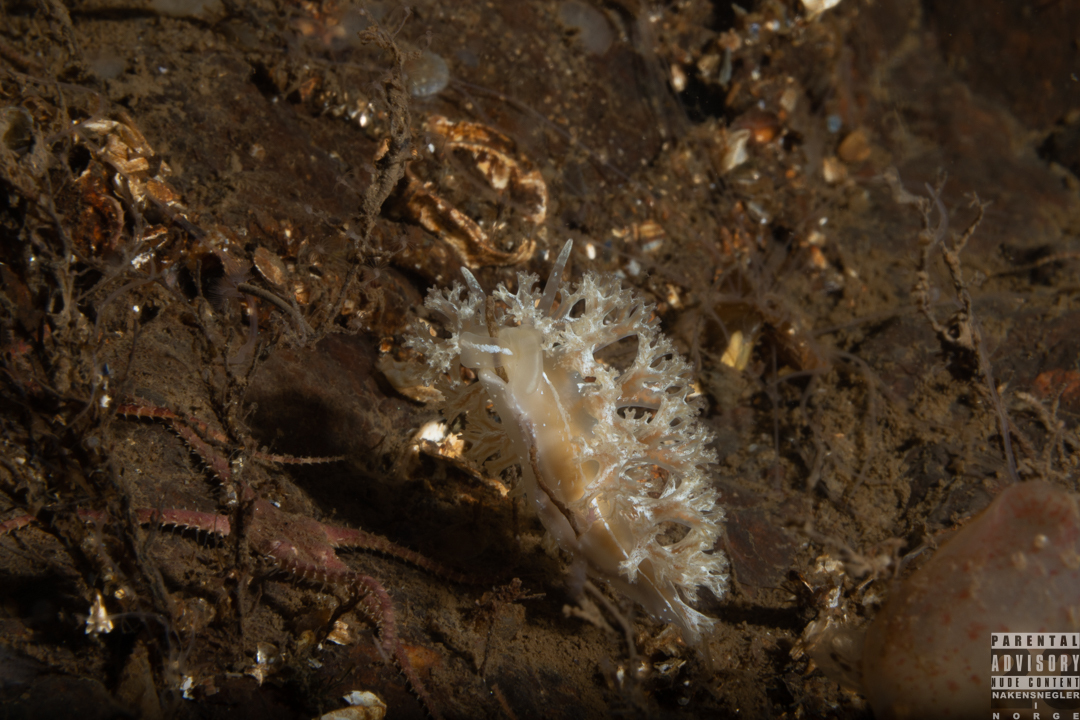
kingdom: Animalia
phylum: Mollusca
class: Gastropoda
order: Nudibranchia
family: Heroidae
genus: Hero
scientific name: Hero formosa
